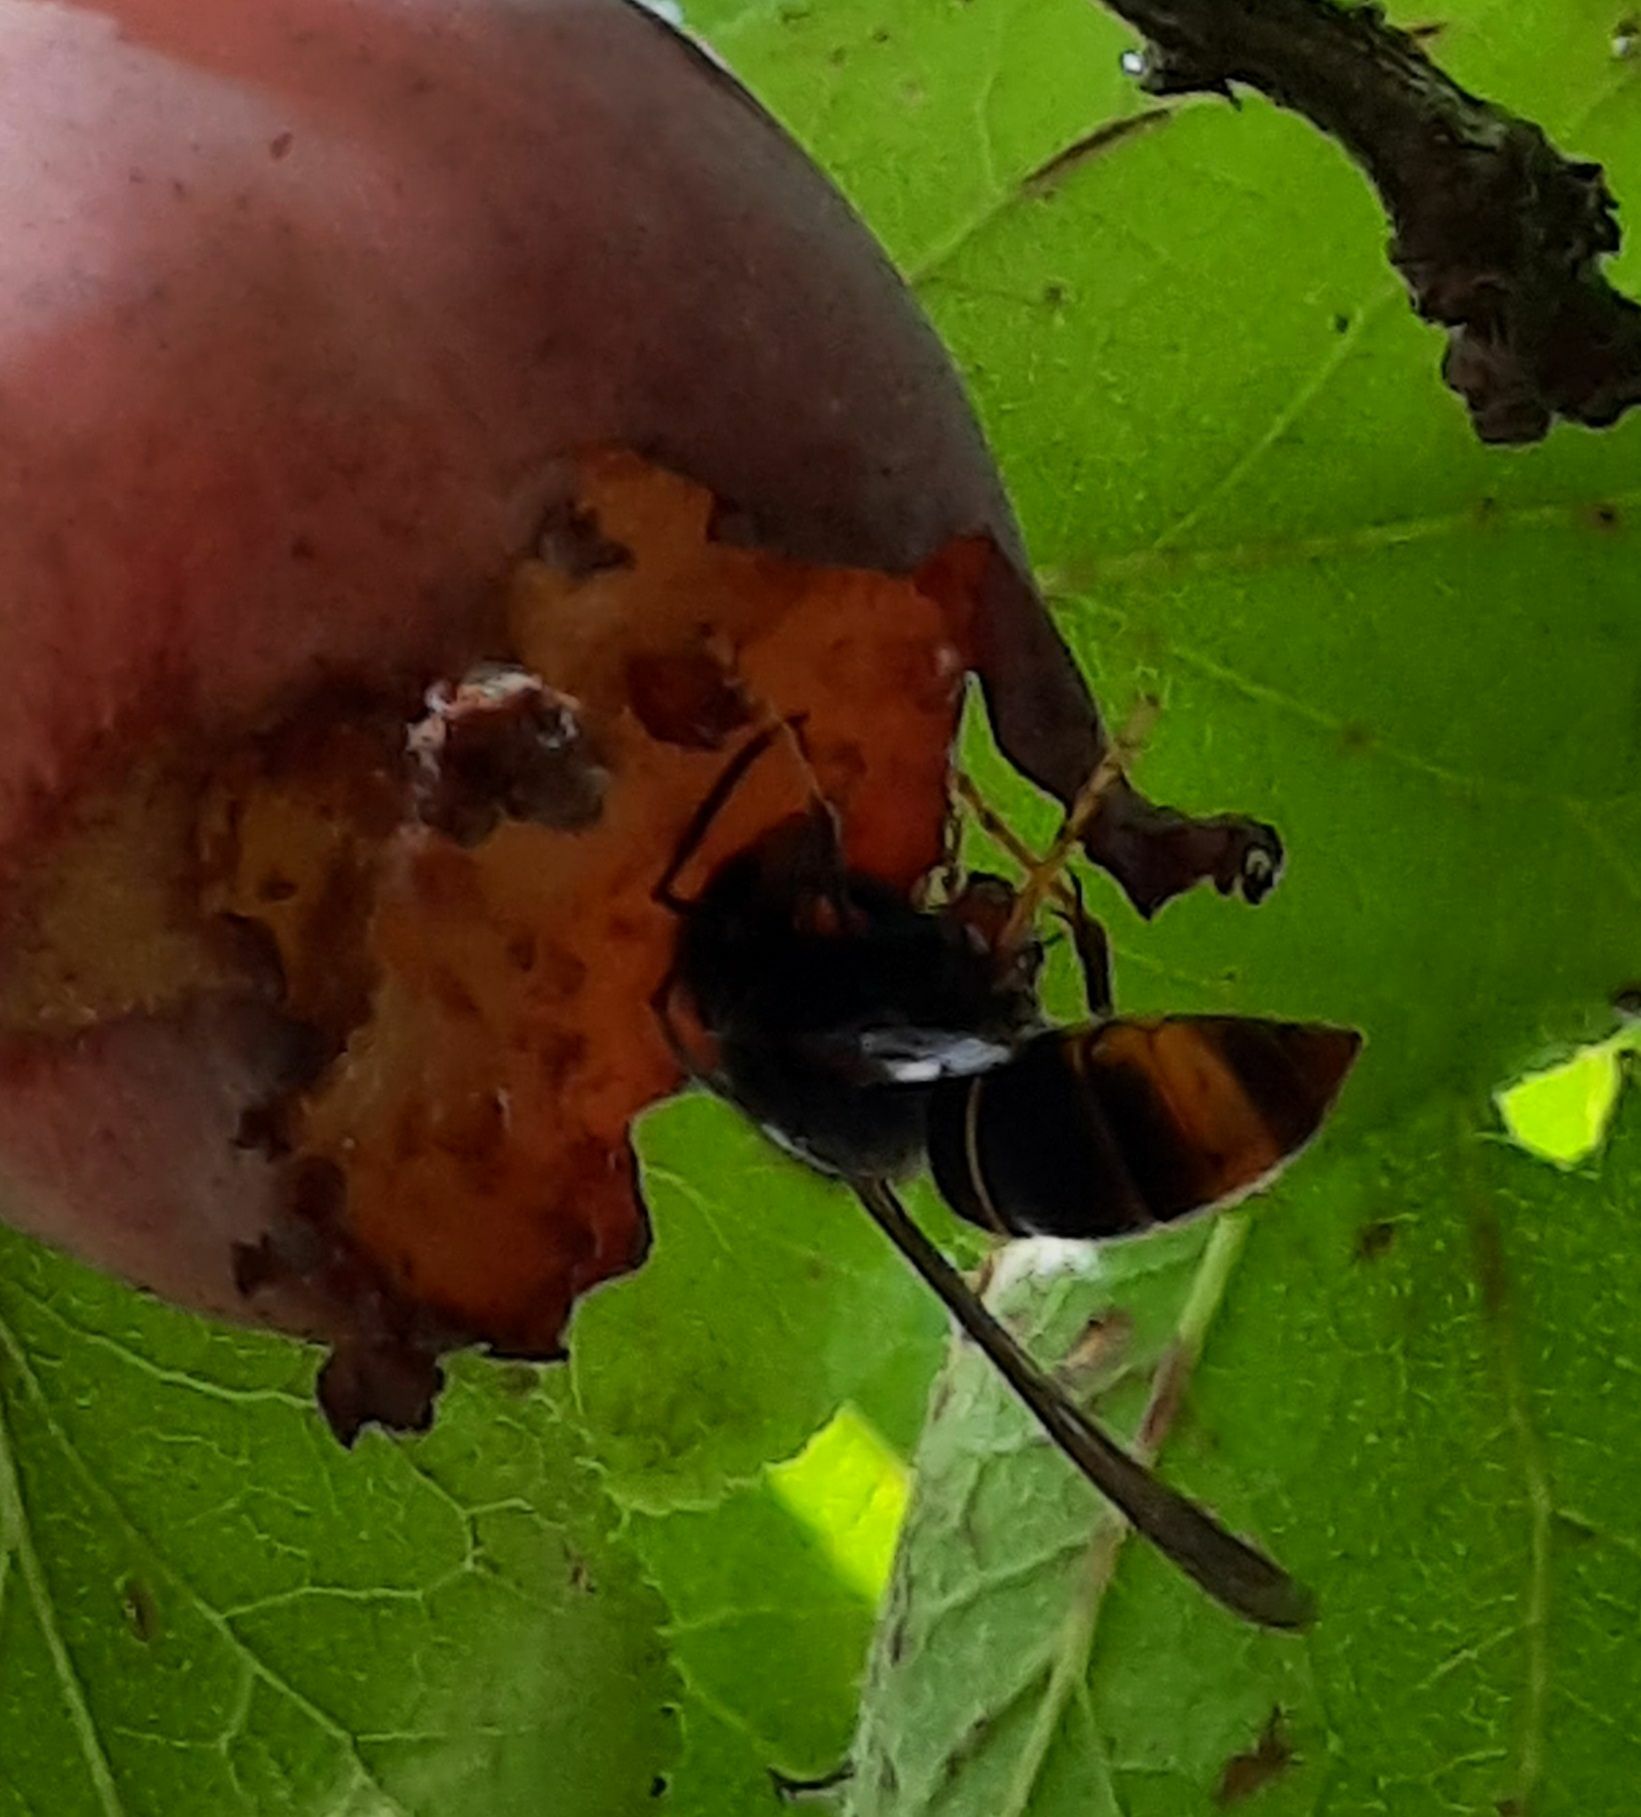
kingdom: Animalia
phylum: Arthropoda
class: Insecta
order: Hymenoptera
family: Vespidae
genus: Vespa
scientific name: Vespa velutina
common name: Asian hornet
